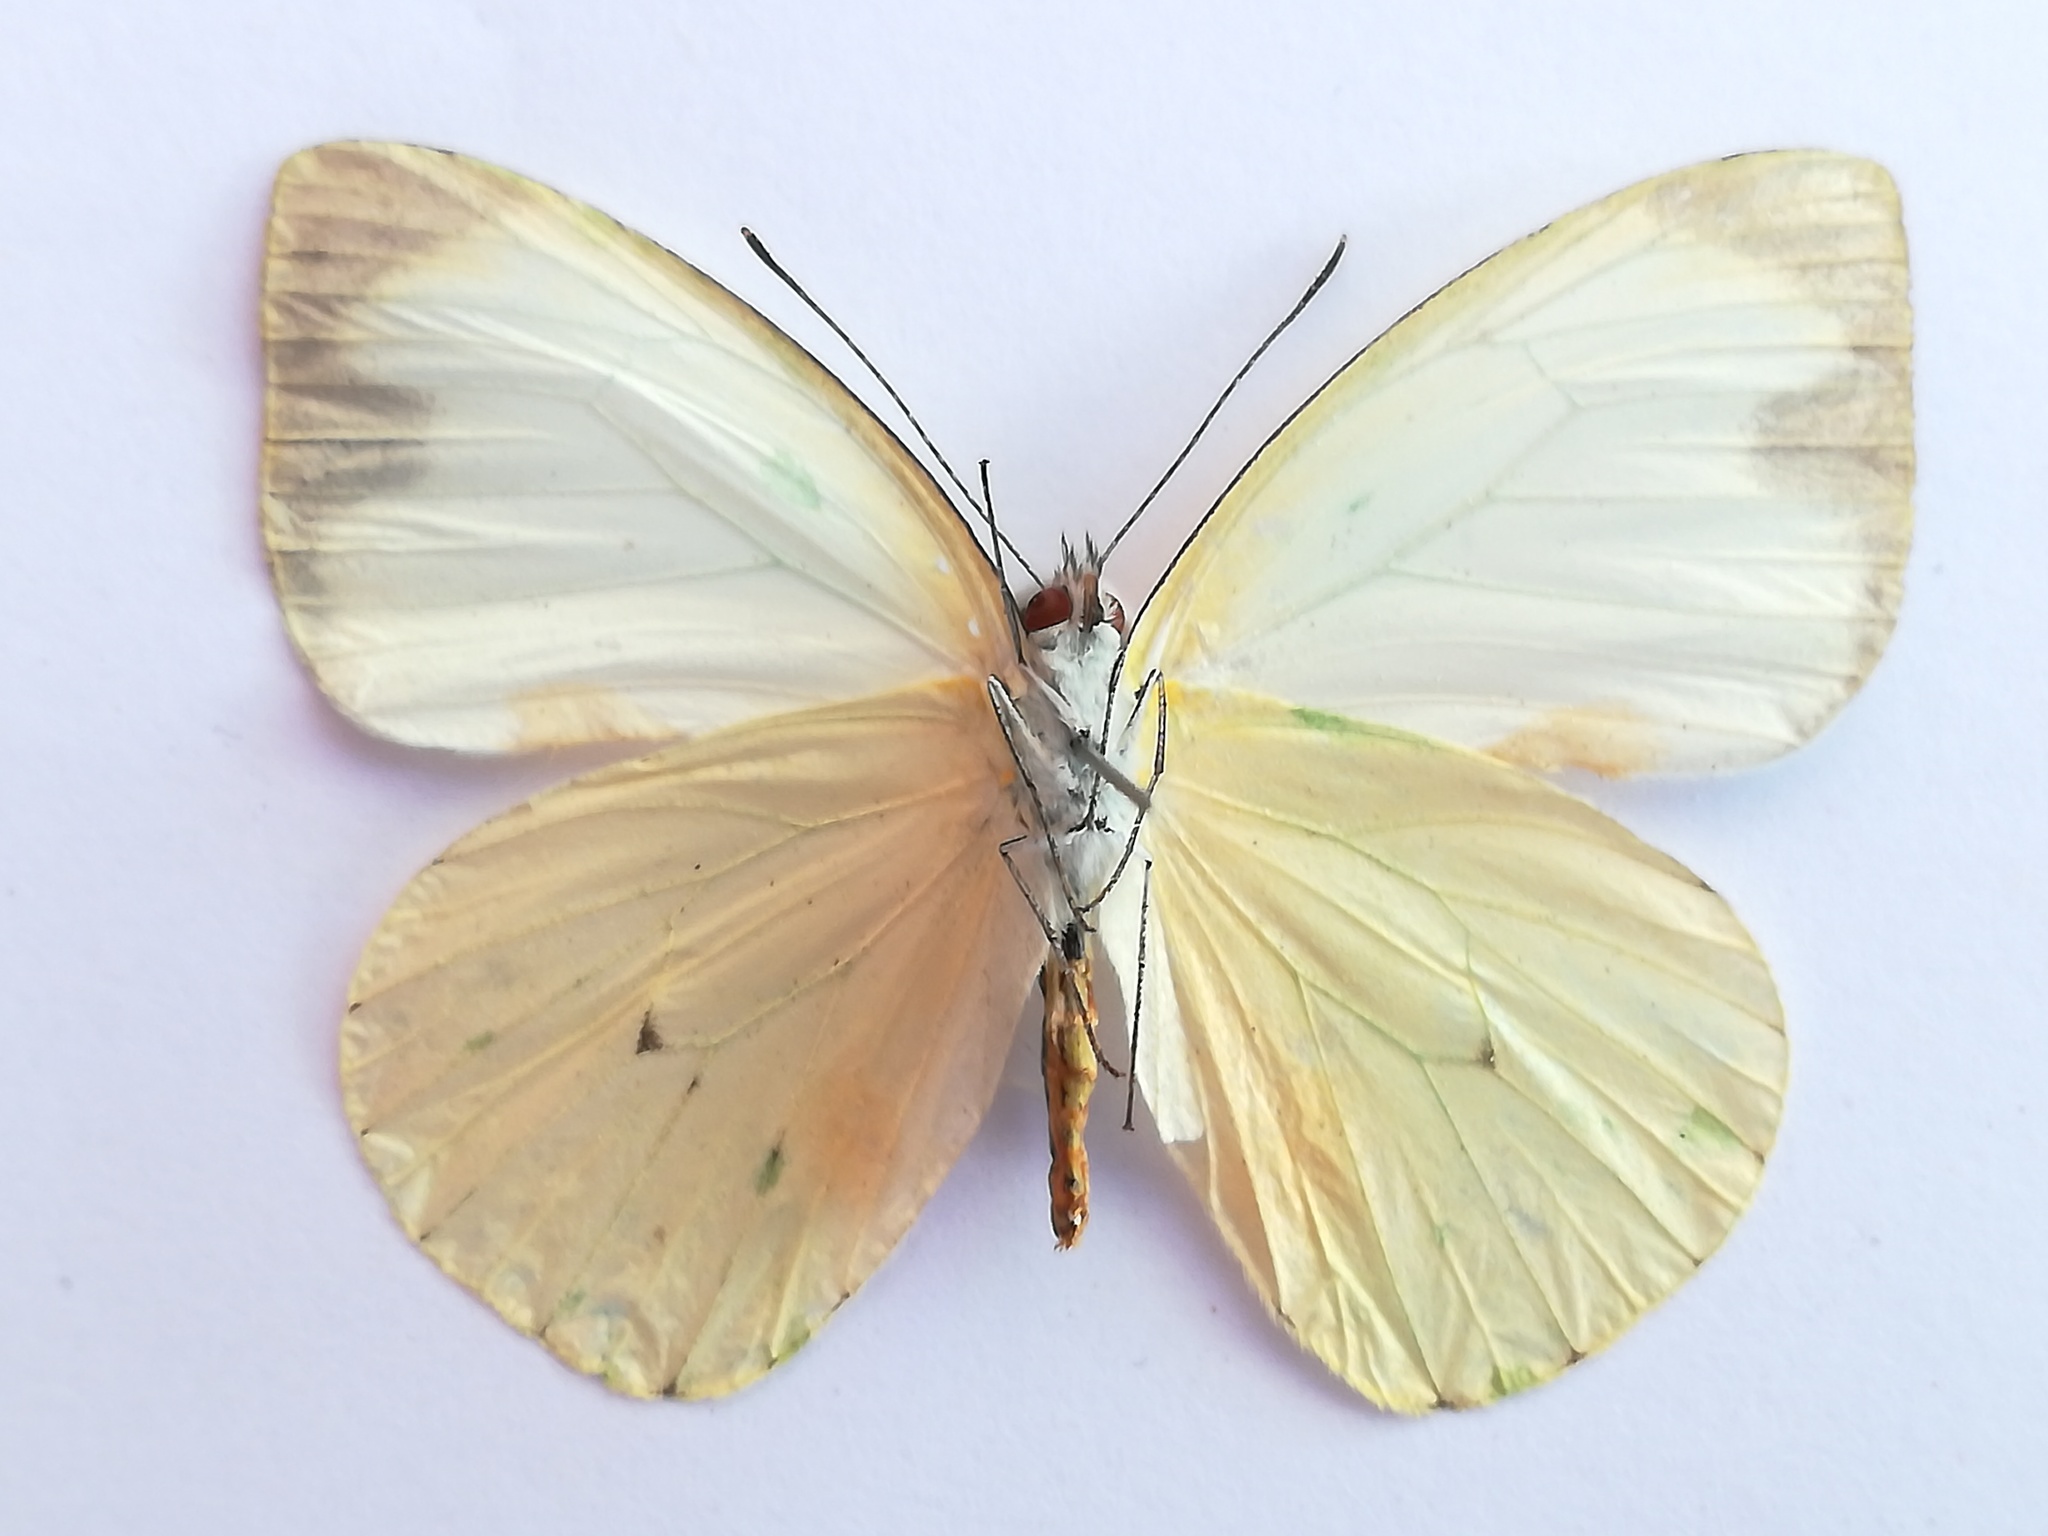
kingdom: Animalia
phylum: Arthropoda
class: Insecta
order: Lepidoptera
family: Pieridae
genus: Leptophobia
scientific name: Leptophobia aripa
